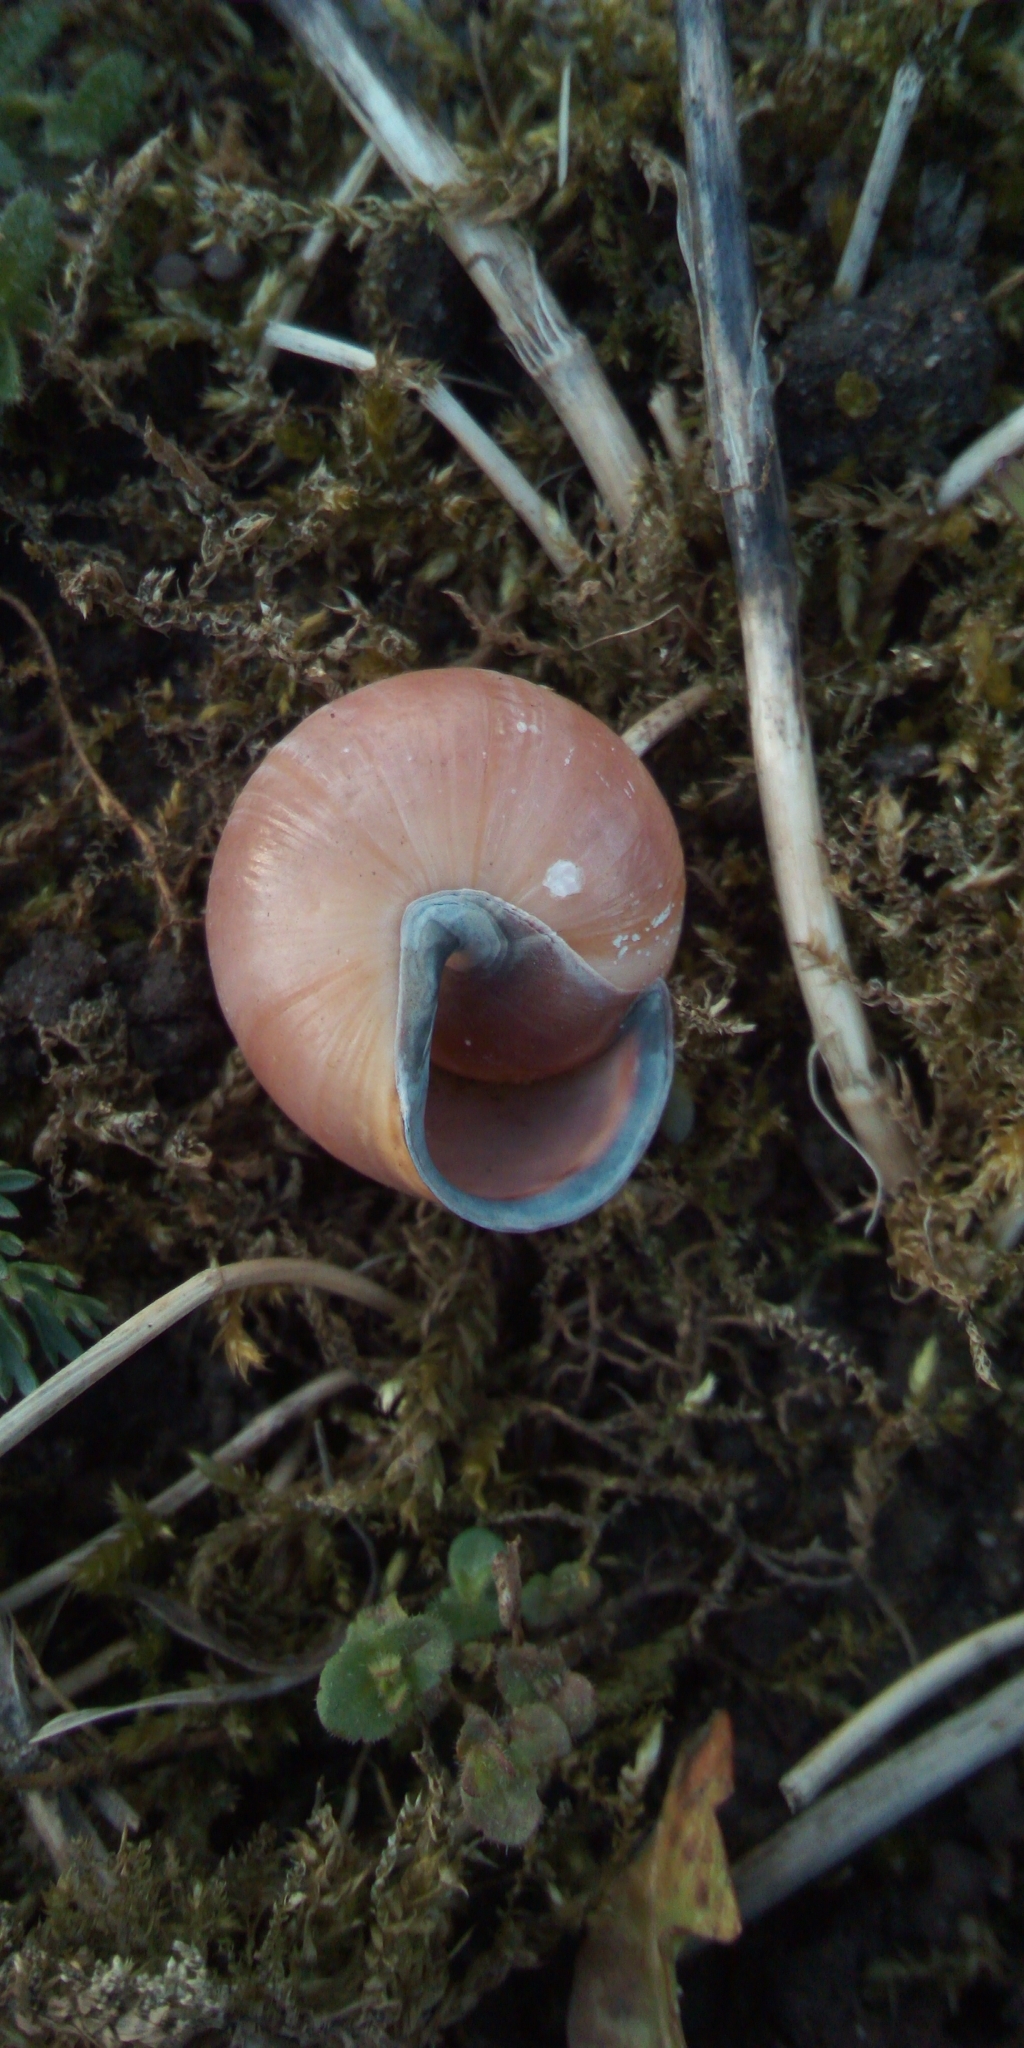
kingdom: Animalia
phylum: Mollusca
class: Gastropoda
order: Stylommatophora
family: Helicidae
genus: Cepaea
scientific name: Cepaea nemoralis
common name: Grovesnail
